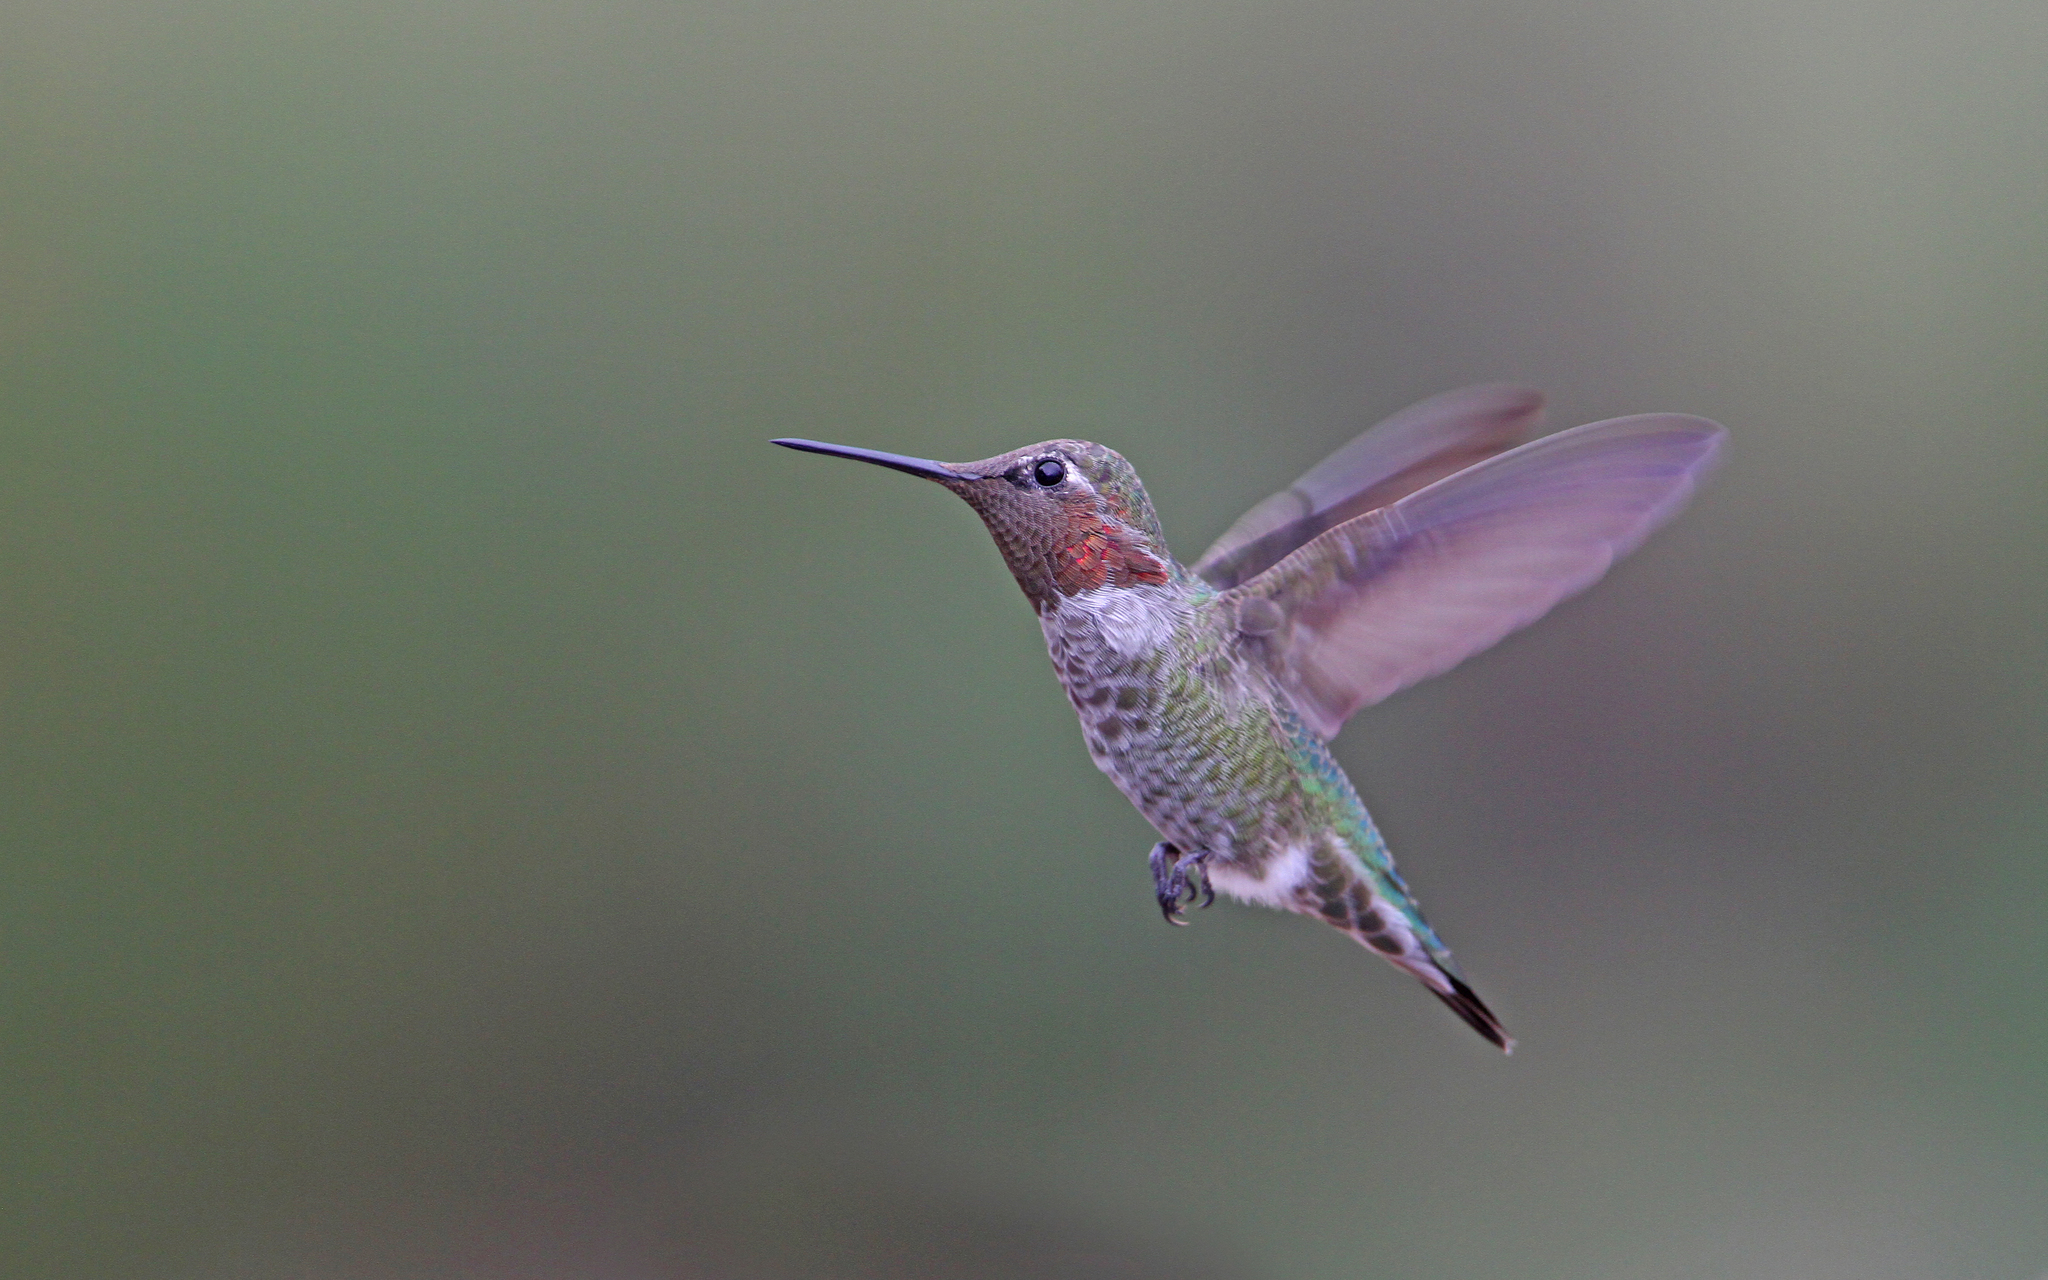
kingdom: Animalia
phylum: Chordata
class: Aves
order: Apodiformes
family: Trochilidae
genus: Calypte
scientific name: Calypte anna
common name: Anna's hummingbird
